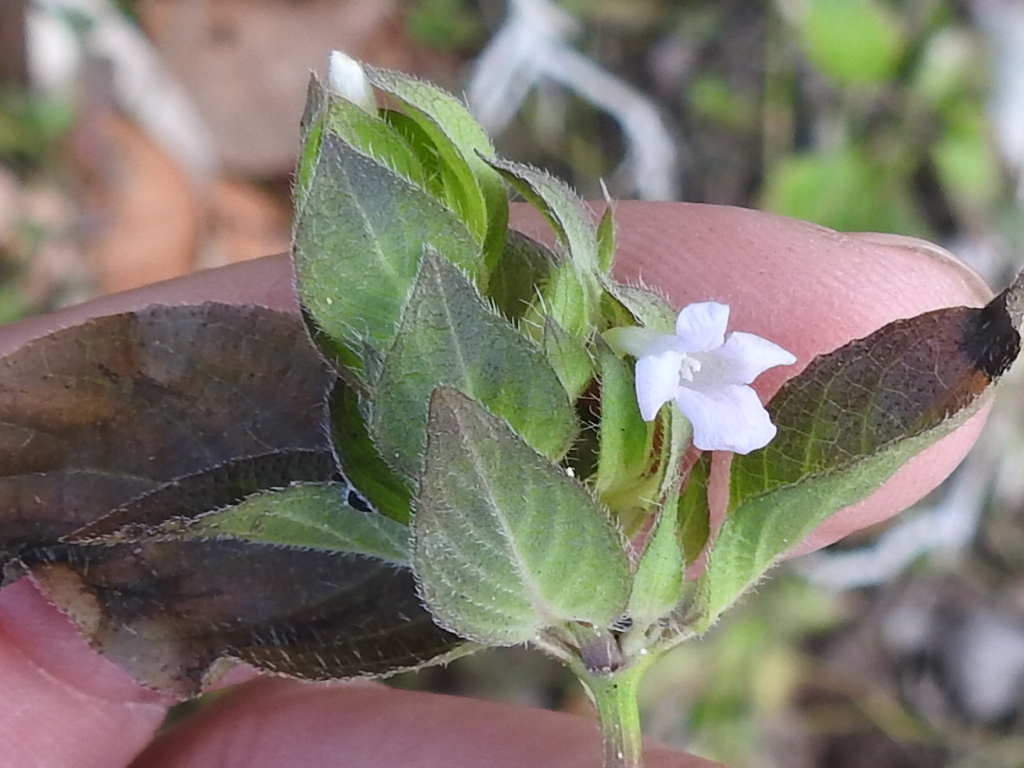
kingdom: Plantae
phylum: Tracheophyta
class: Magnoliopsida
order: Lamiales
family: Acanthaceae
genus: Ruellia
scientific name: Ruellia blechum
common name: Browne's blechum
